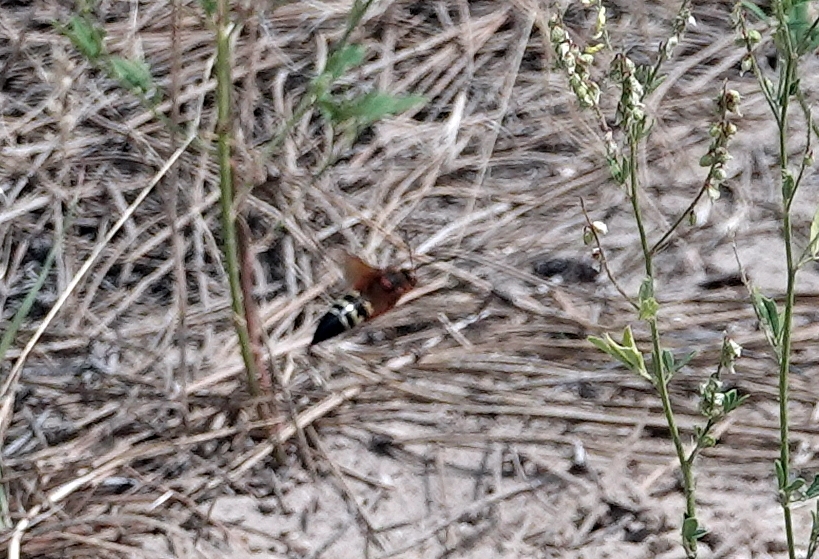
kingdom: Animalia
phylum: Arthropoda
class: Insecta
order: Hymenoptera
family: Crabronidae
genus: Sphecius
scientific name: Sphecius speciosus
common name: Cicada killer
